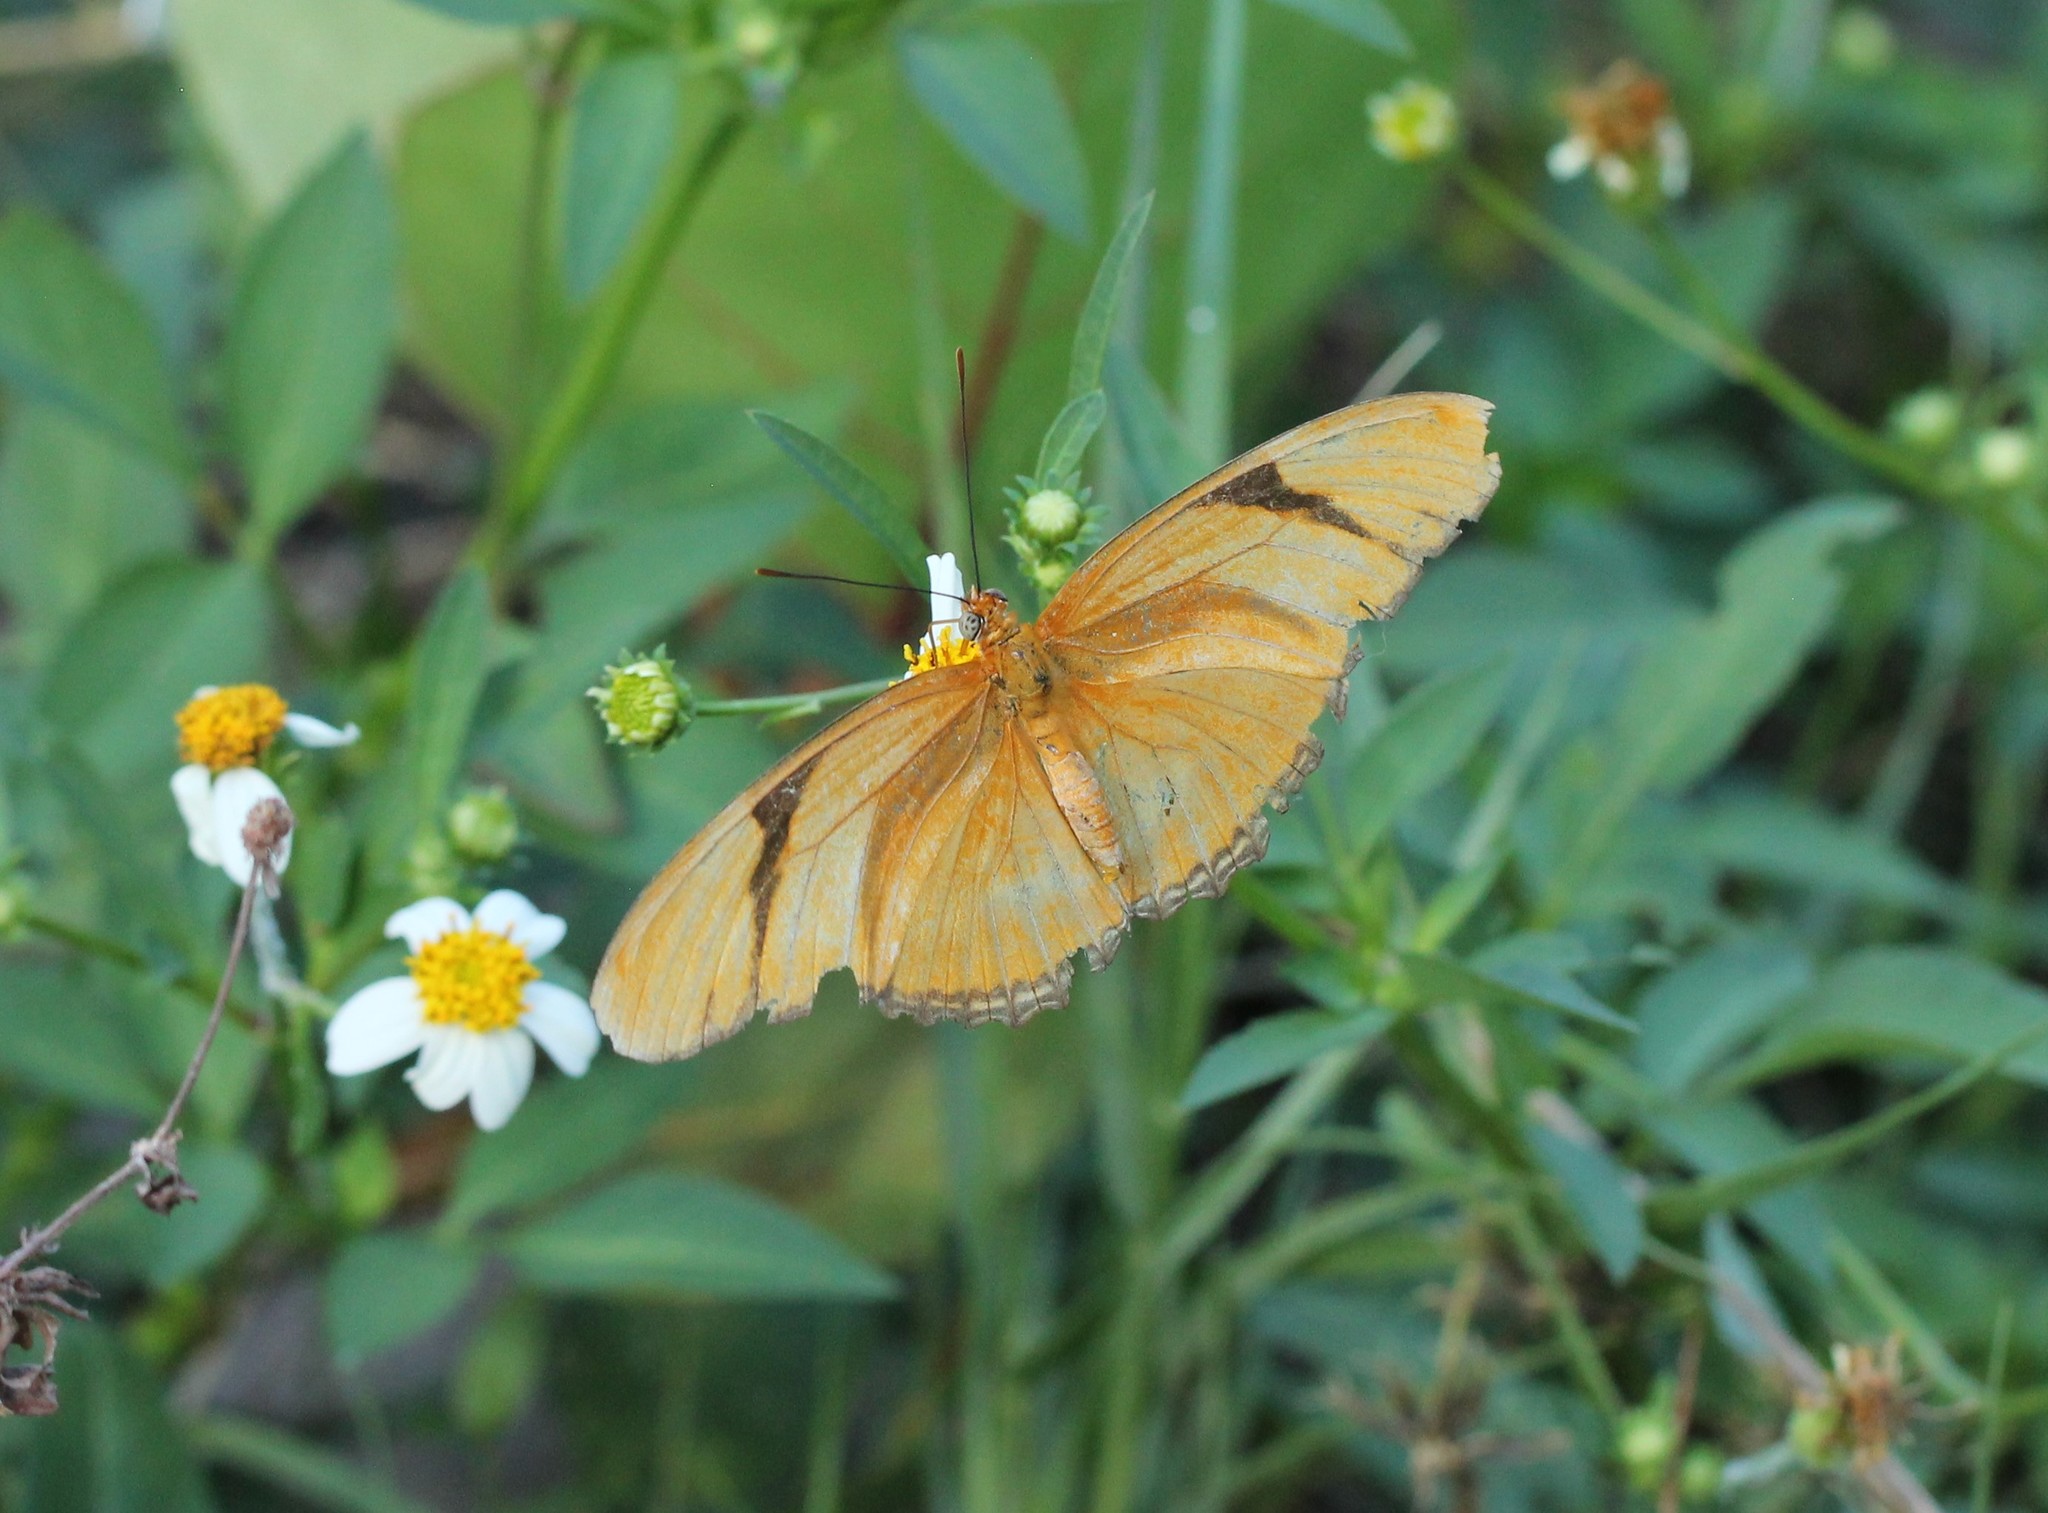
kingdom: Animalia
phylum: Arthropoda
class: Insecta
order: Lepidoptera
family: Nymphalidae
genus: Dryas
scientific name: Dryas iulia
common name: Flambeau
